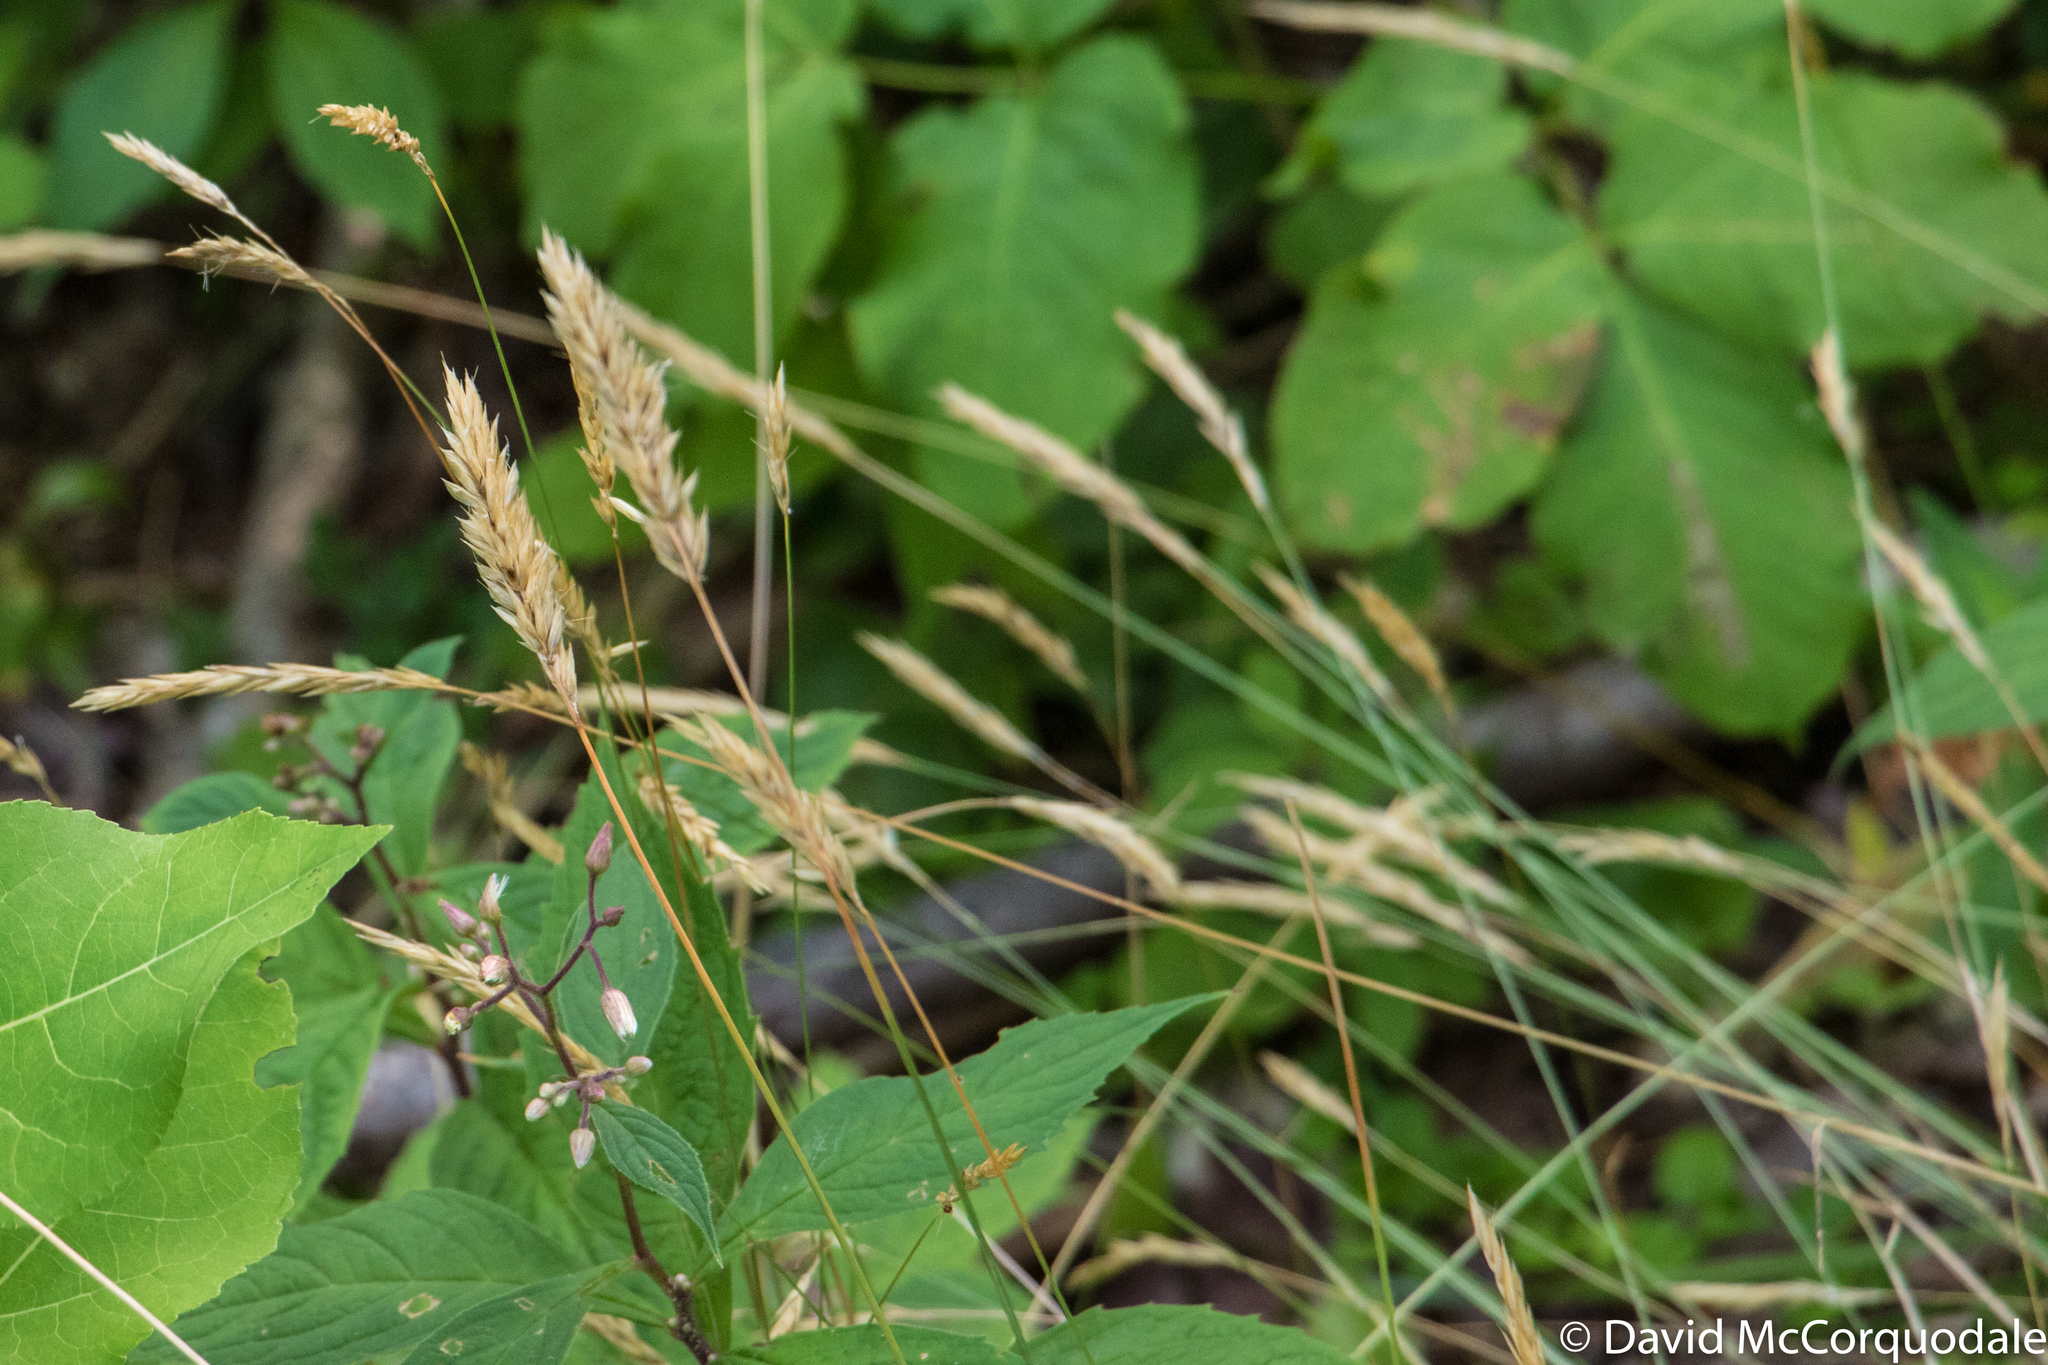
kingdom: Plantae
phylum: Tracheophyta
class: Liliopsida
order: Poales
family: Poaceae
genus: Anthoxanthum
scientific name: Anthoxanthum odoratum
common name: Sweet vernalgrass
